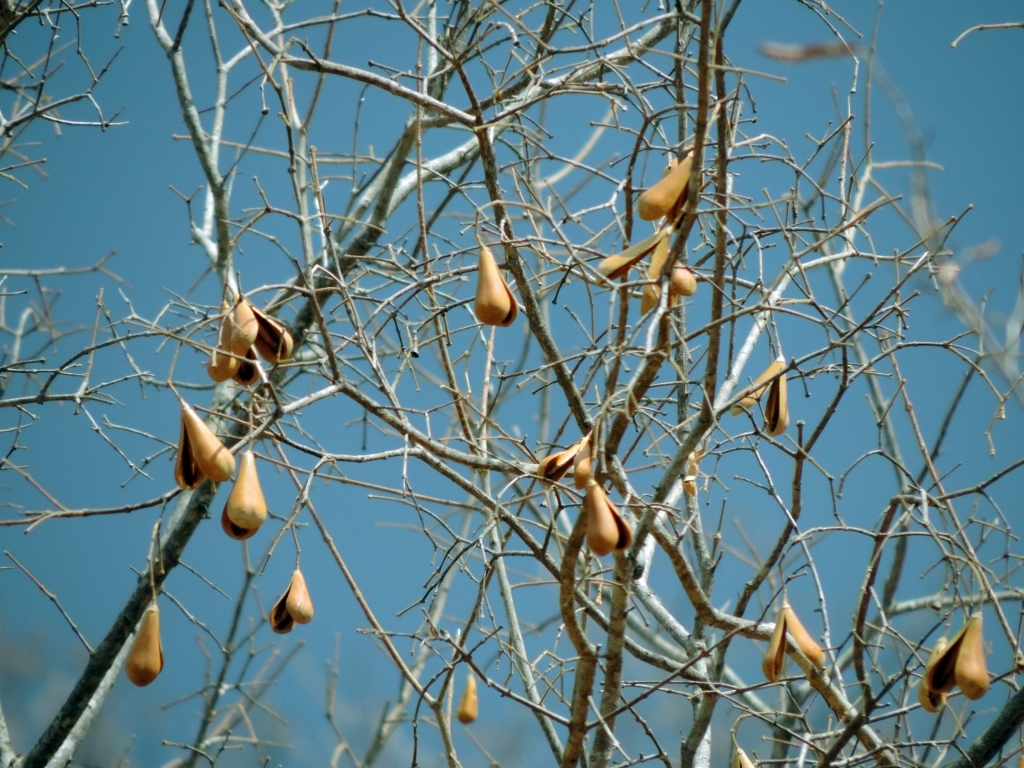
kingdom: Plantae
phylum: Tracheophyta
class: Magnoliopsida
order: Lamiales
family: Oleaceae
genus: Schrebera
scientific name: Schrebera trichoclada
